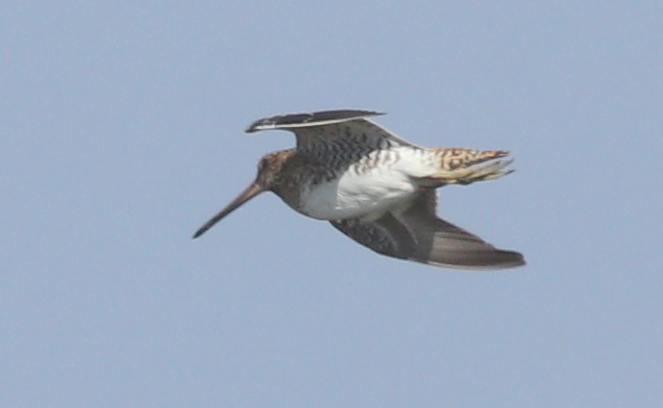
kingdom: Animalia
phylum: Chordata
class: Aves
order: Charadriiformes
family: Scolopacidae
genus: Gallinago
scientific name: Gallinago gallinago
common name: Common snipe
